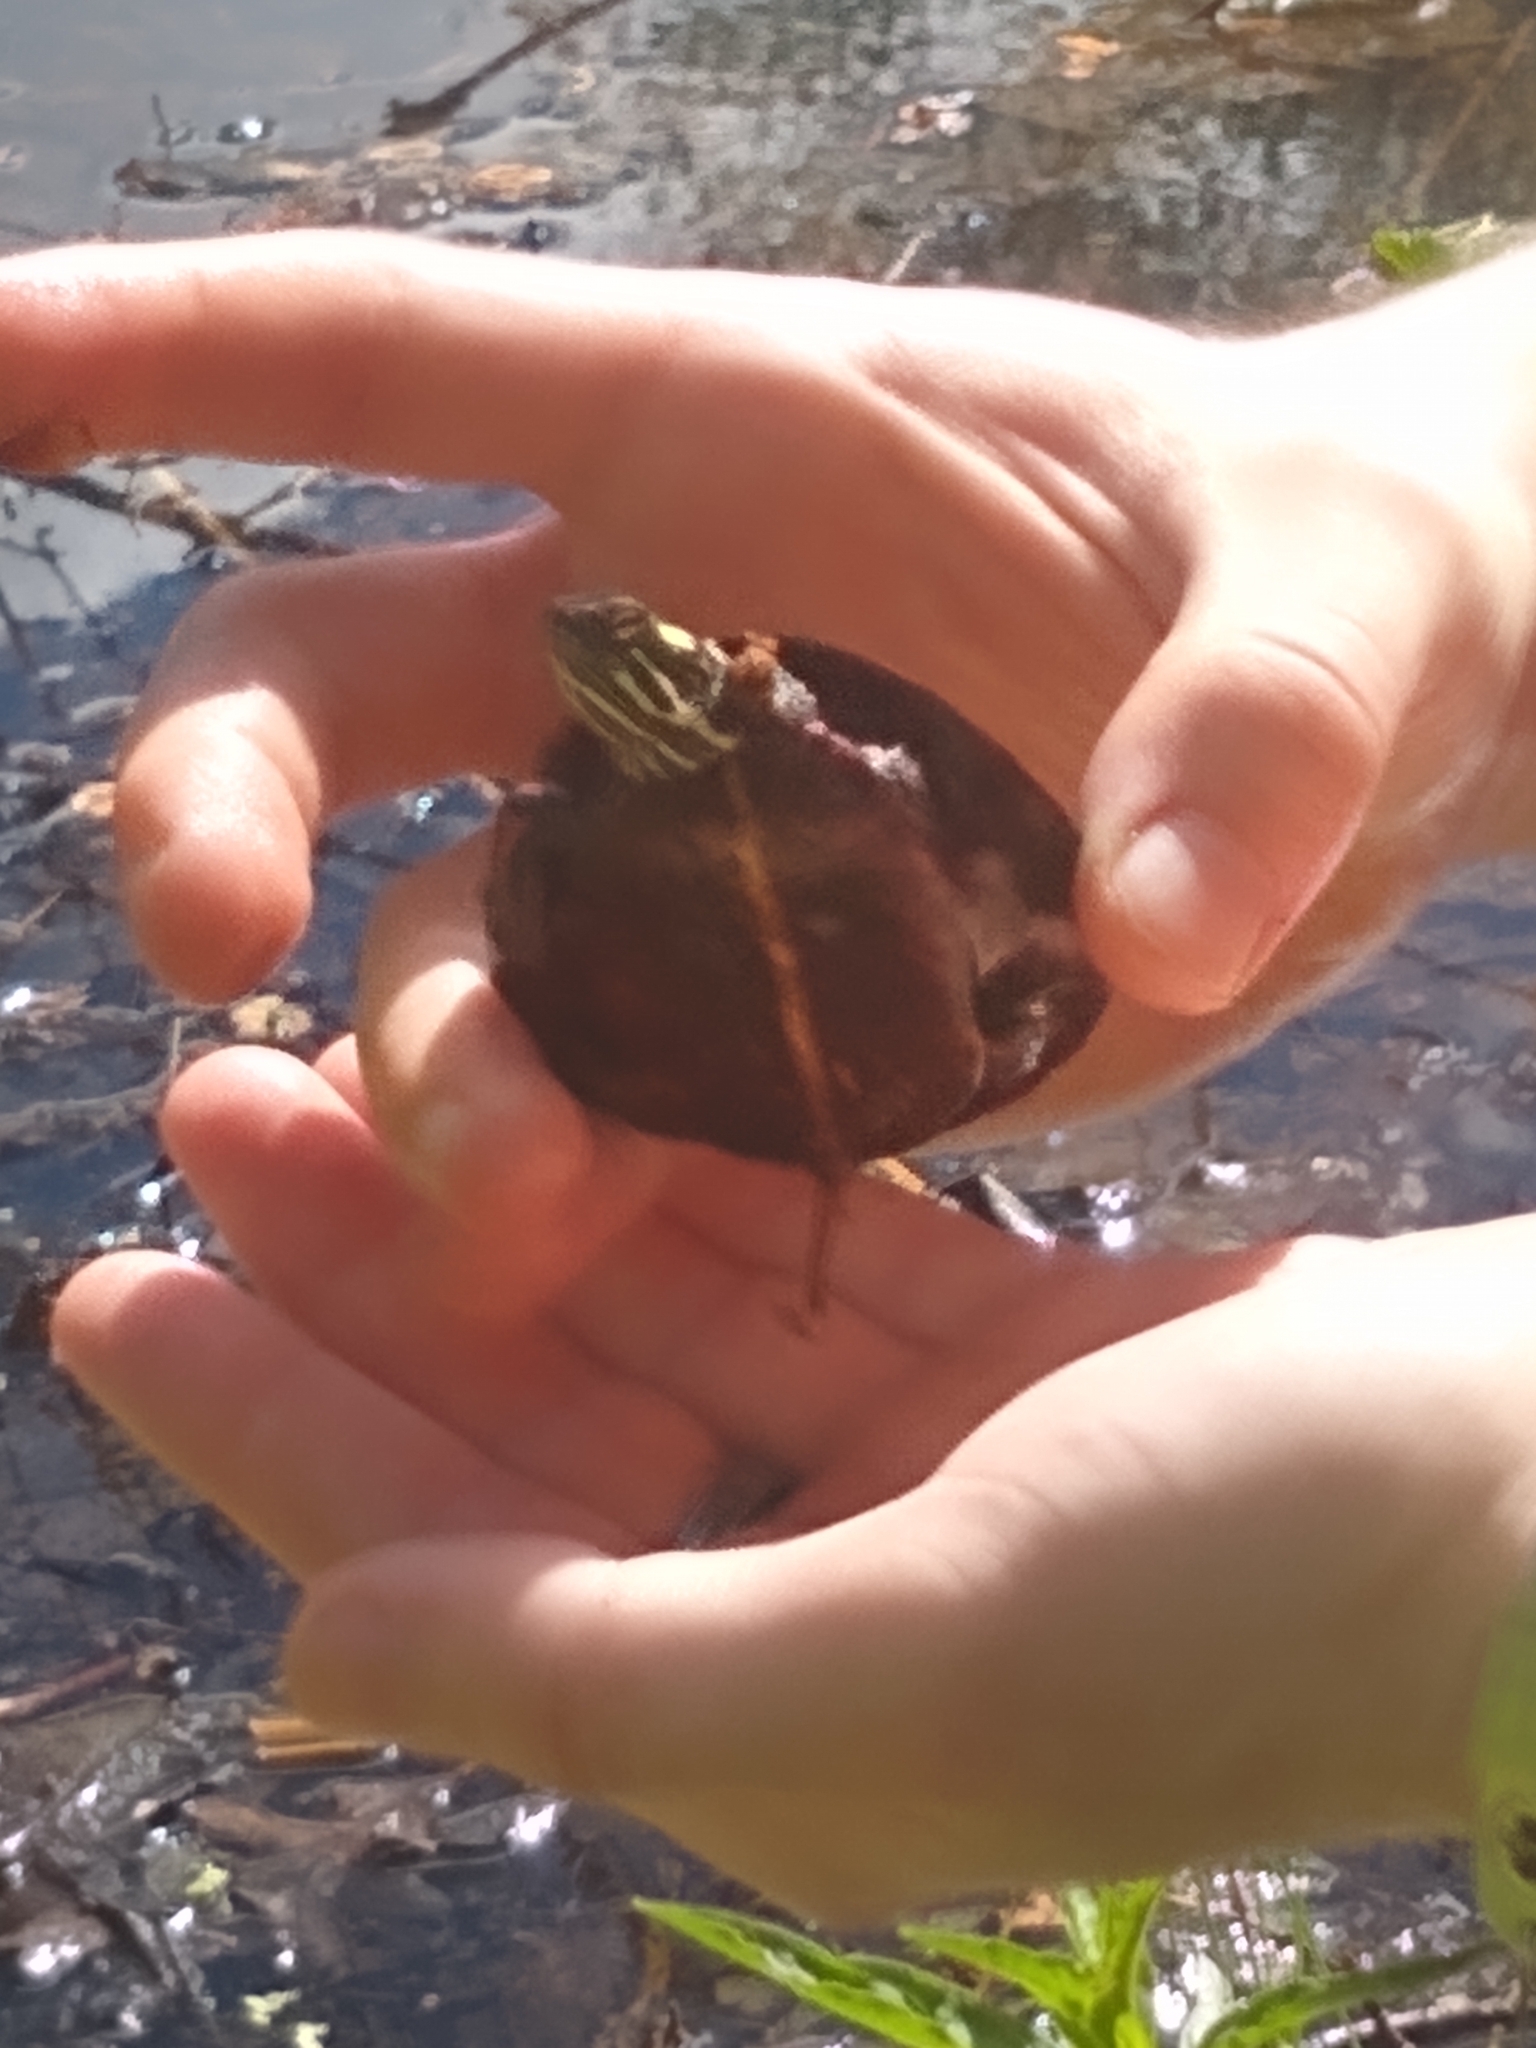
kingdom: Animalia
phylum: Chordata
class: Testudines
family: Emydidae
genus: Chrysemys
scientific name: Chrysemys picta
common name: Painted turtle
